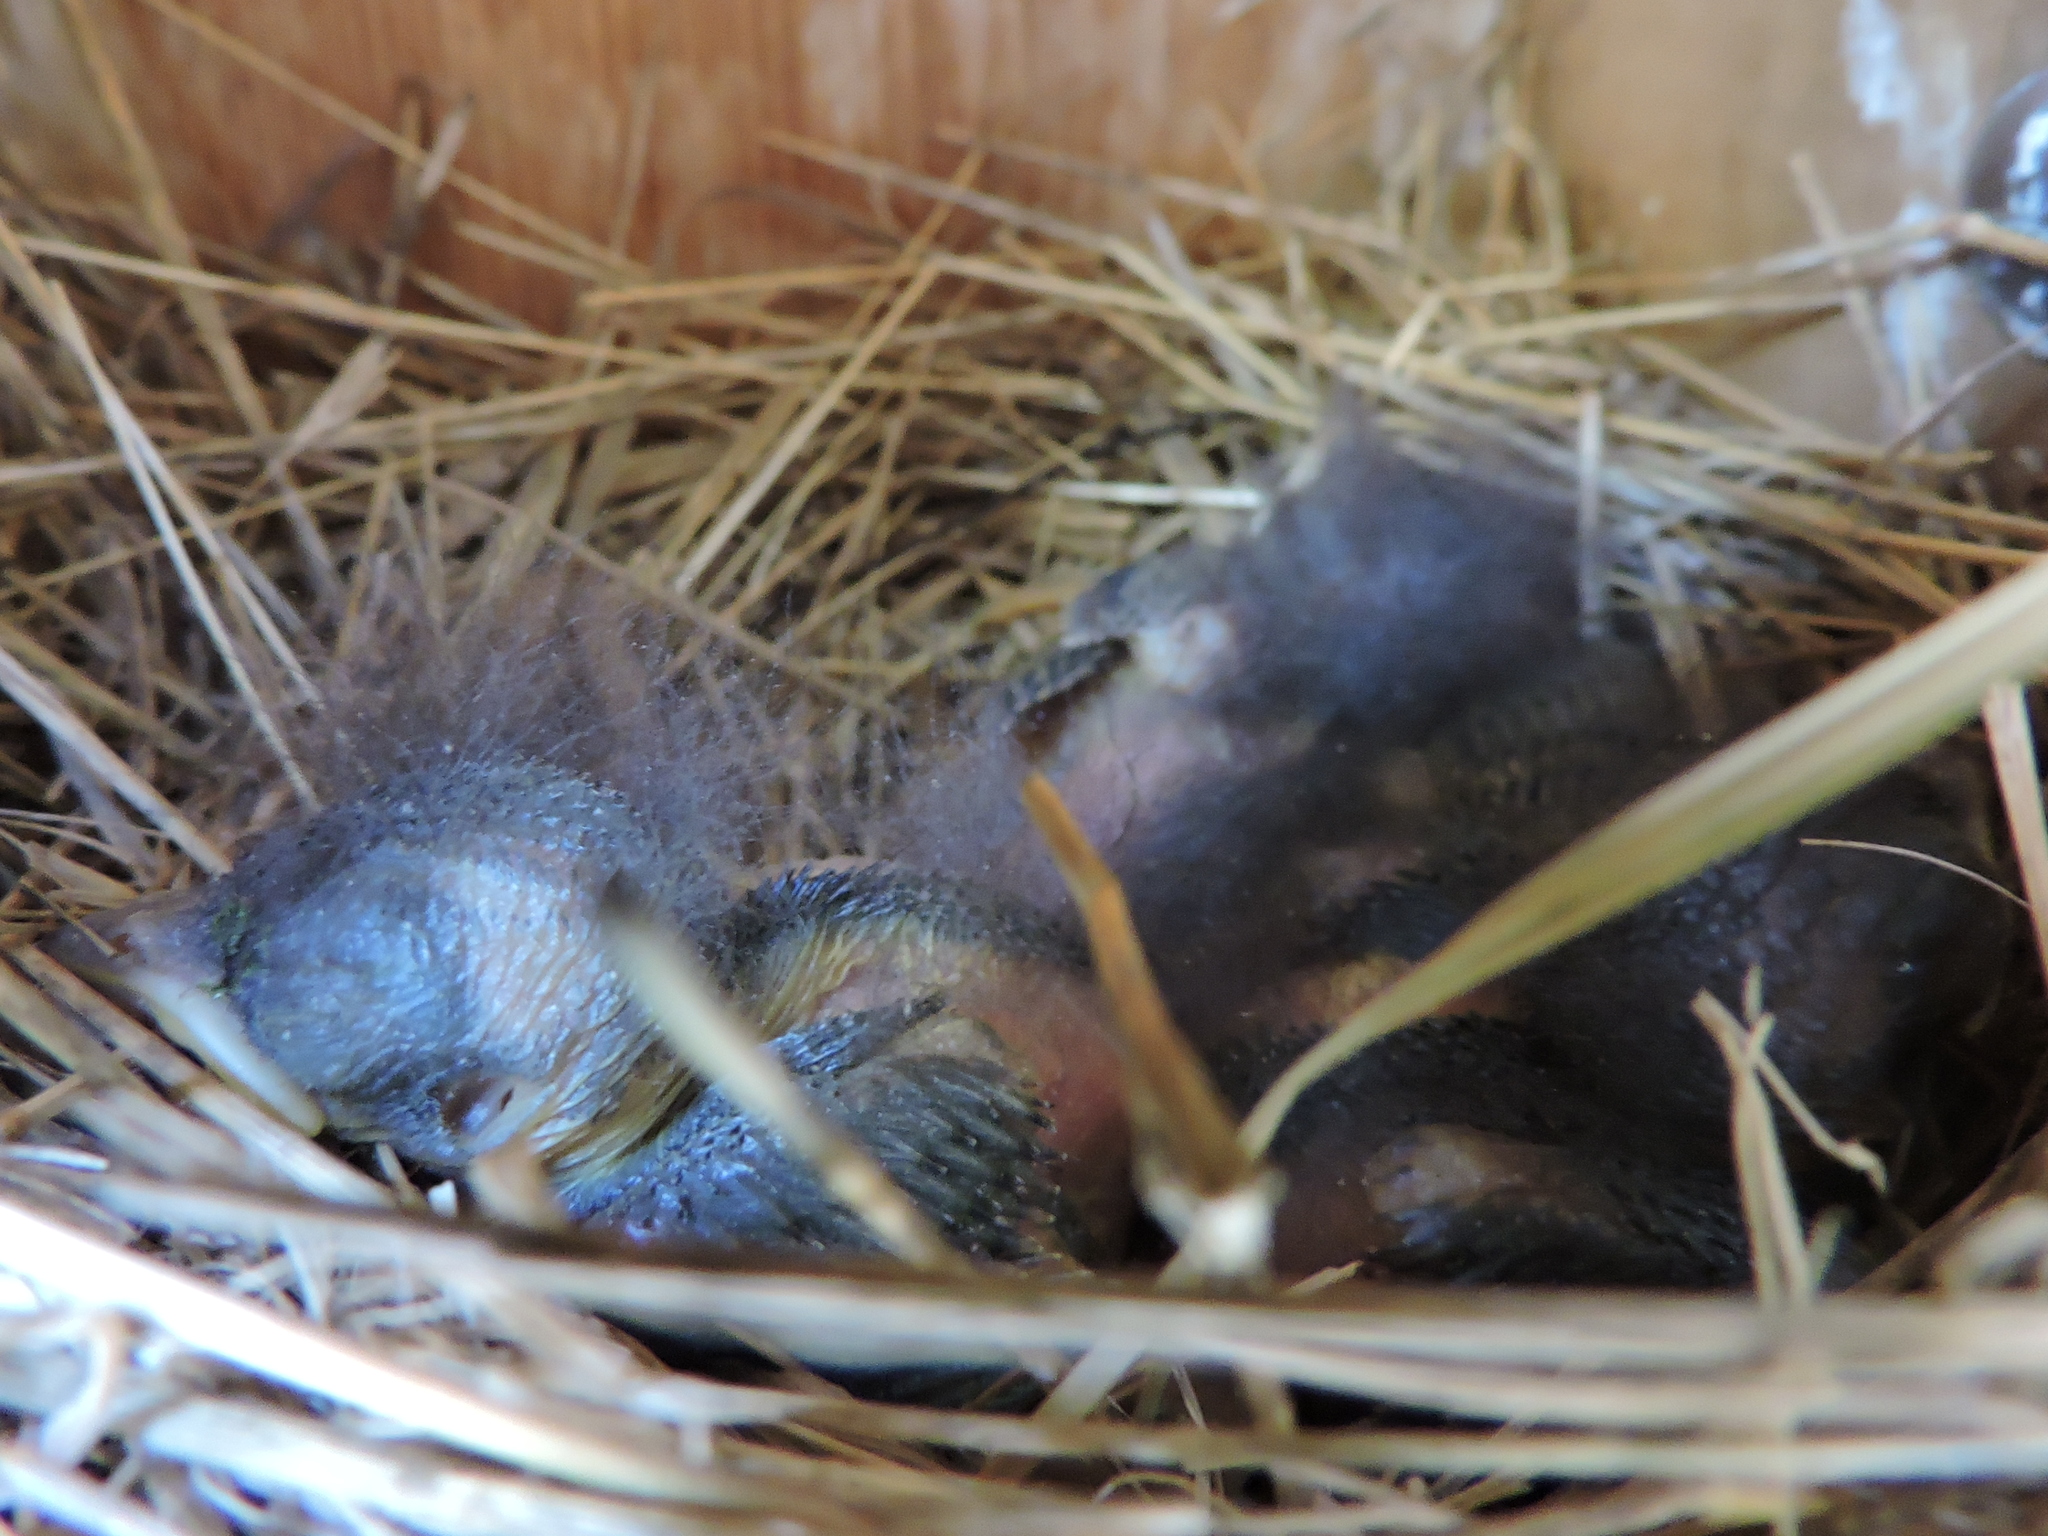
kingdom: Animalia
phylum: Chordata
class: Aves
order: Passeriformes
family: Turdidae
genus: Sialia
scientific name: Sialia sialis
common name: Eastern bluebird
